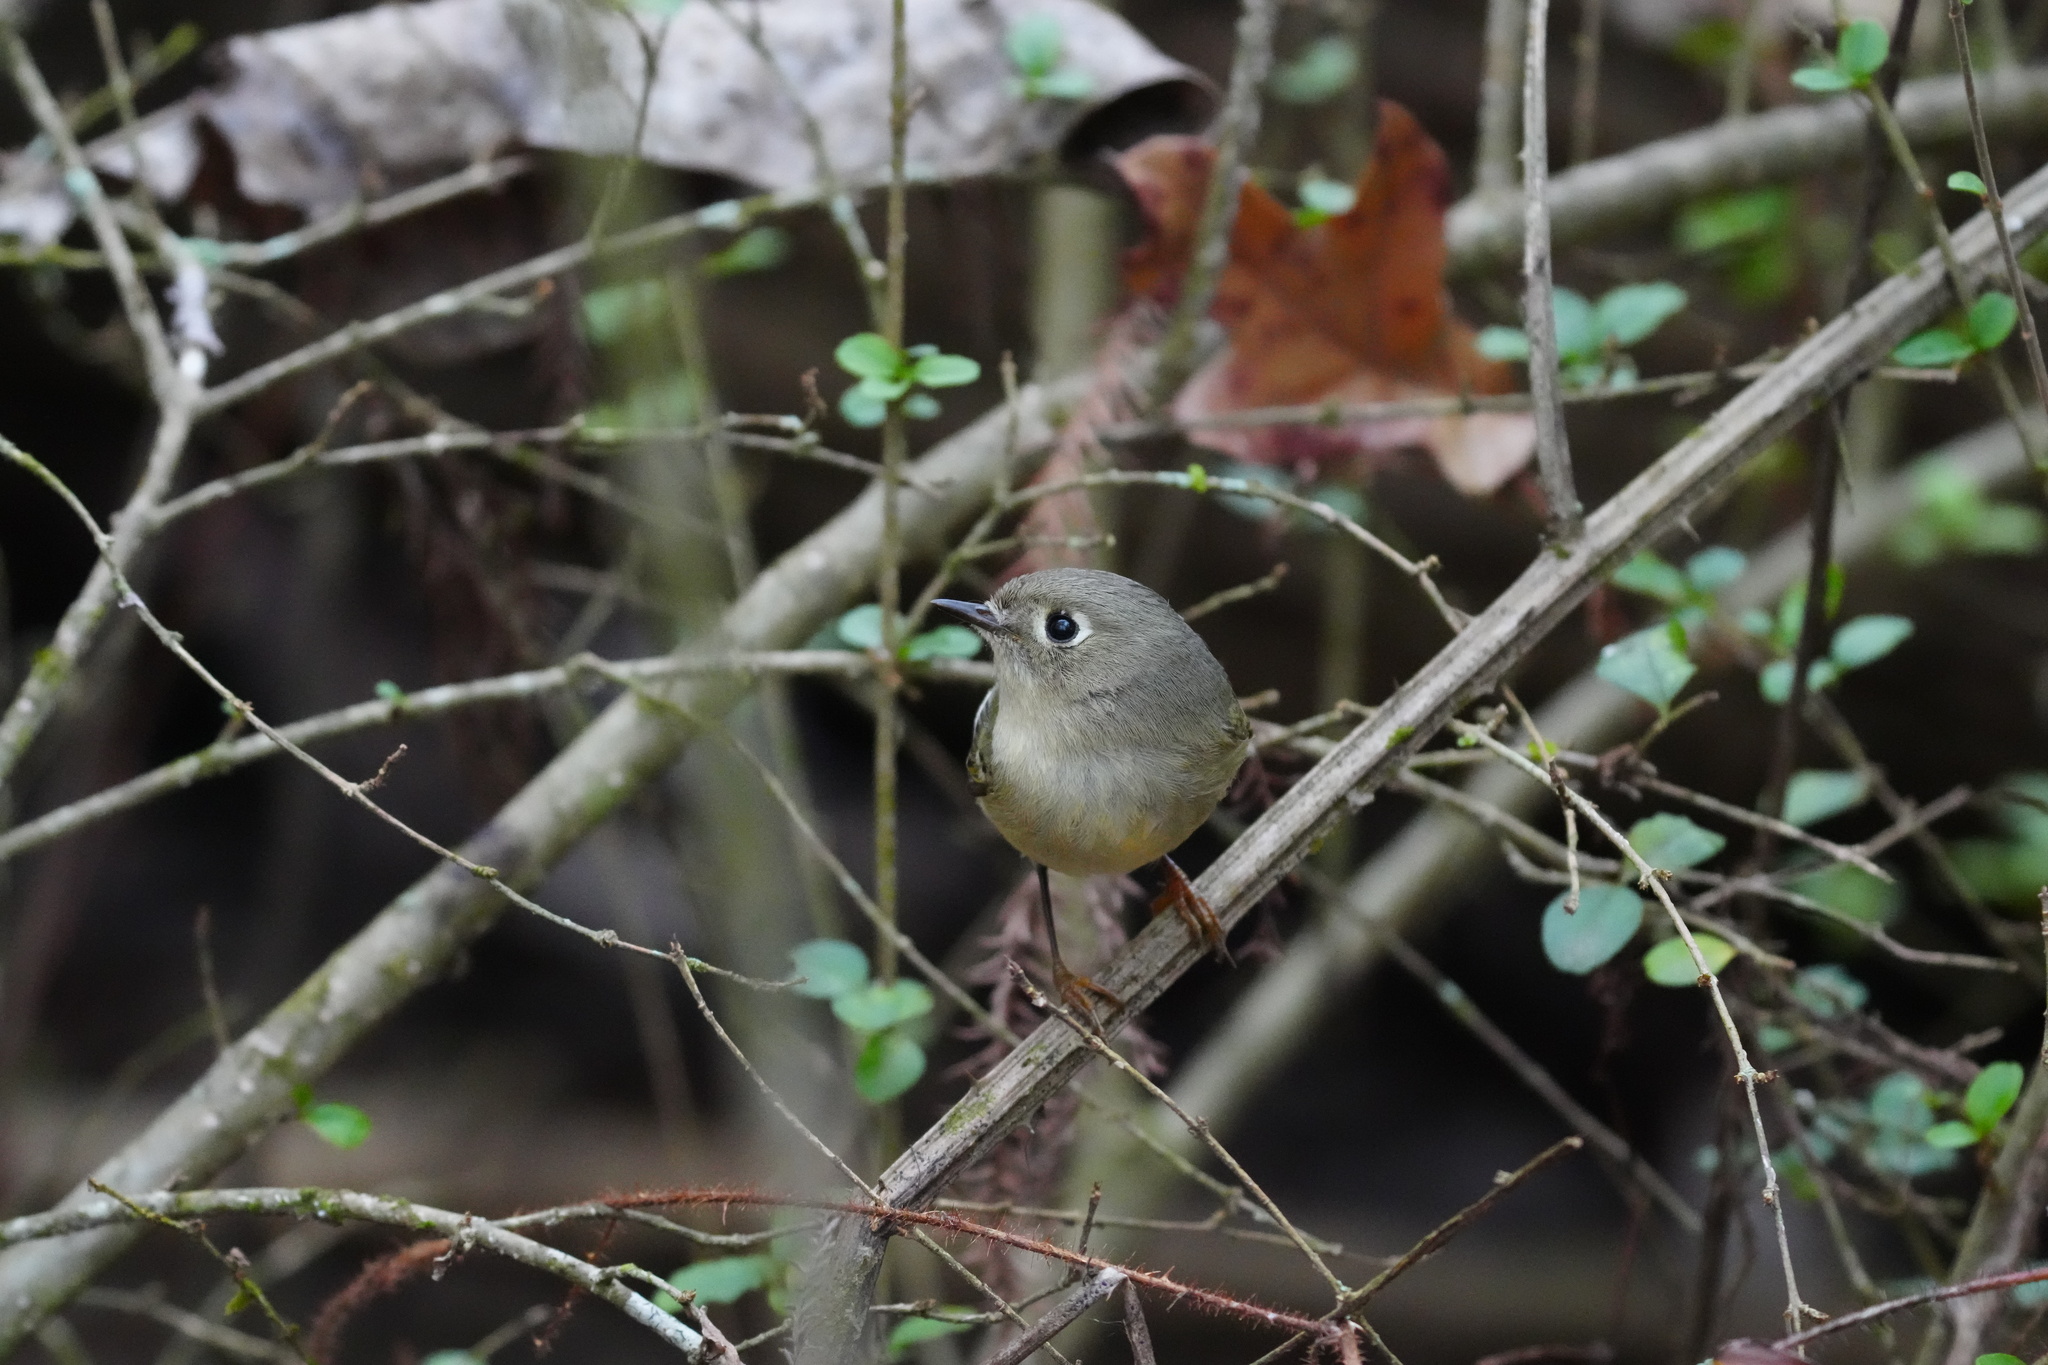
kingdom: Animalia
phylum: Chordata
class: Aves
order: Passeriformes
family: Regulidae
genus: Regulus
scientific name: Regulus calendula
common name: Ruby-crowned kinglet
